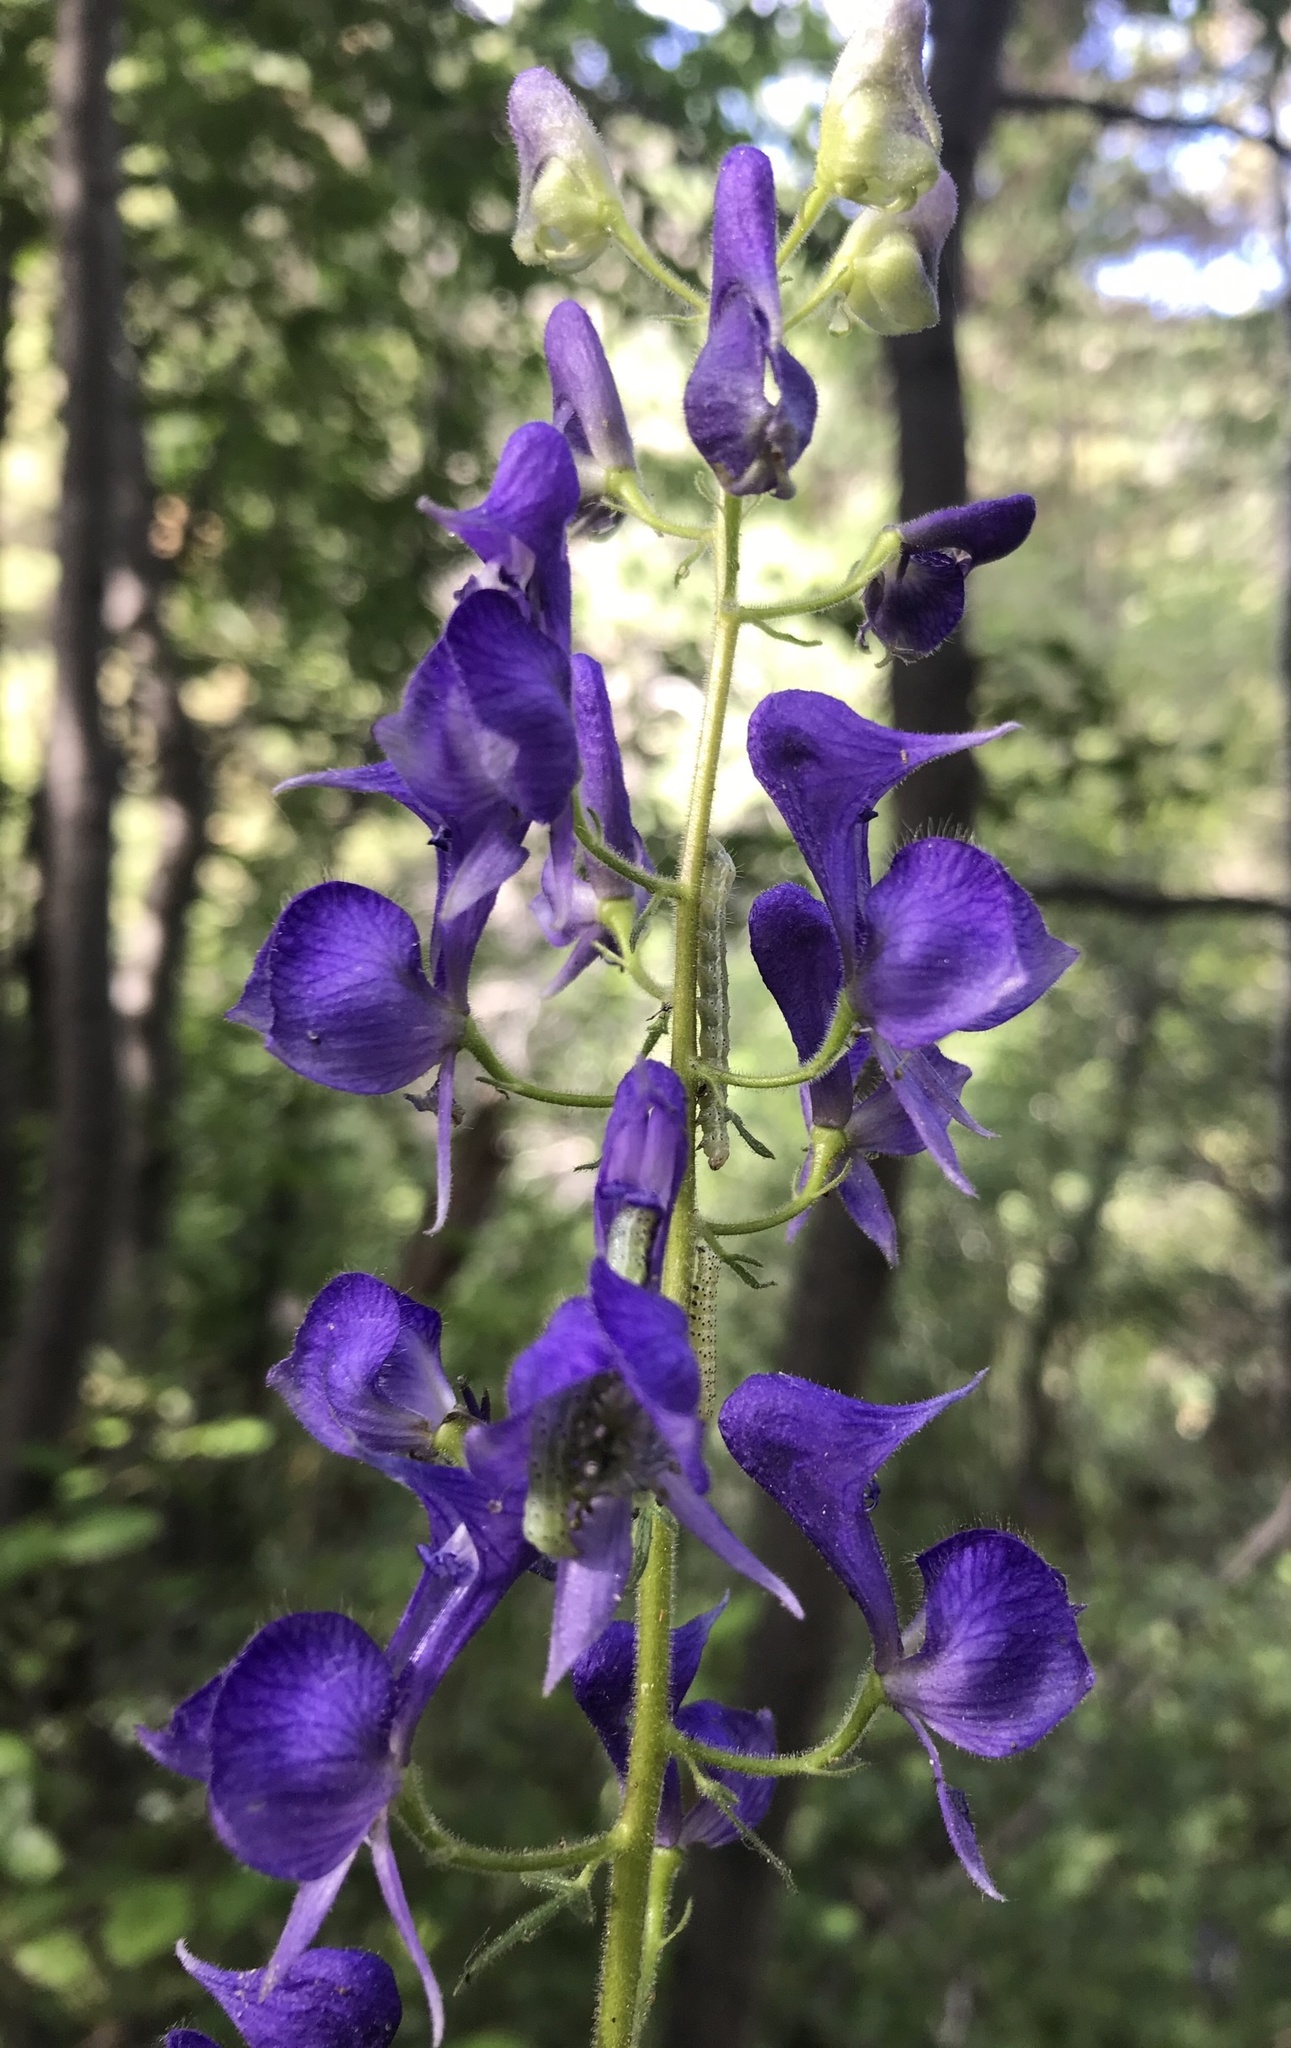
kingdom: Plantae
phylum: Tracheophyta
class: Magnoliopsida
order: Ranunculales
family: Ranunculaceae
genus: Aconitum
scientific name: Aconitum columbianum
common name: Columbia aconite
